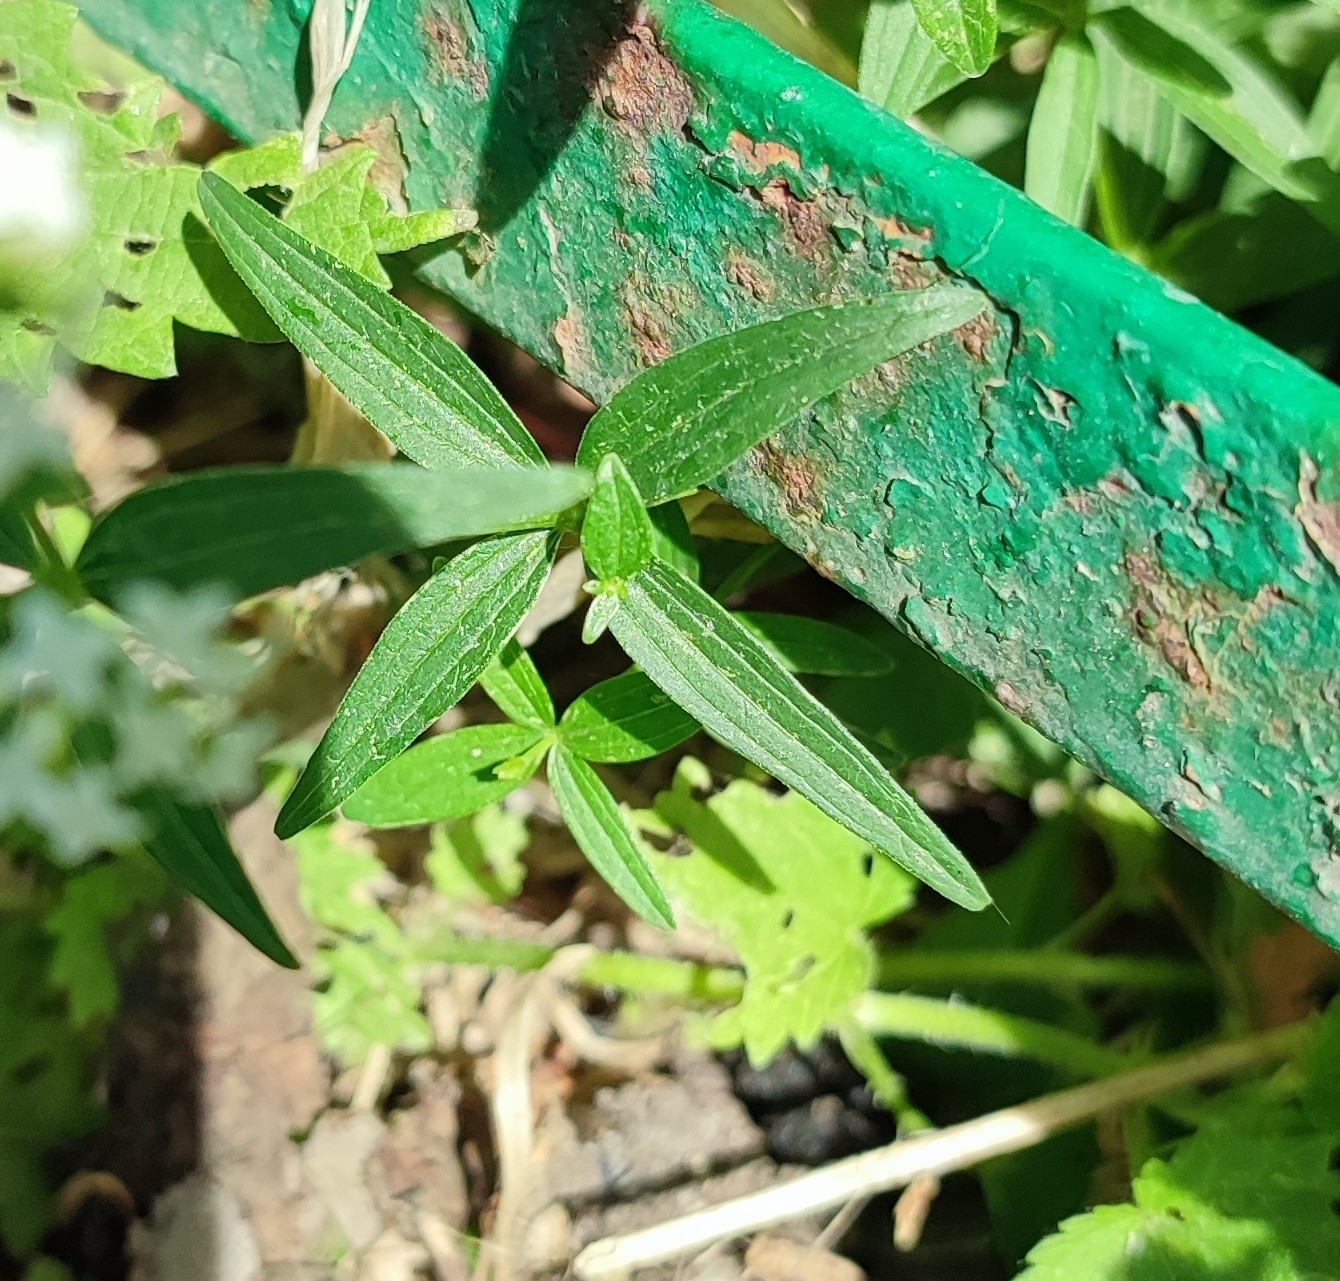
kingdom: Plantae
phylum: Tracheophyta
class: Magnoliopsida
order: Gentianales
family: Rubiaceae
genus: Galium
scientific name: Galium boreale
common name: Northern bedstraw
